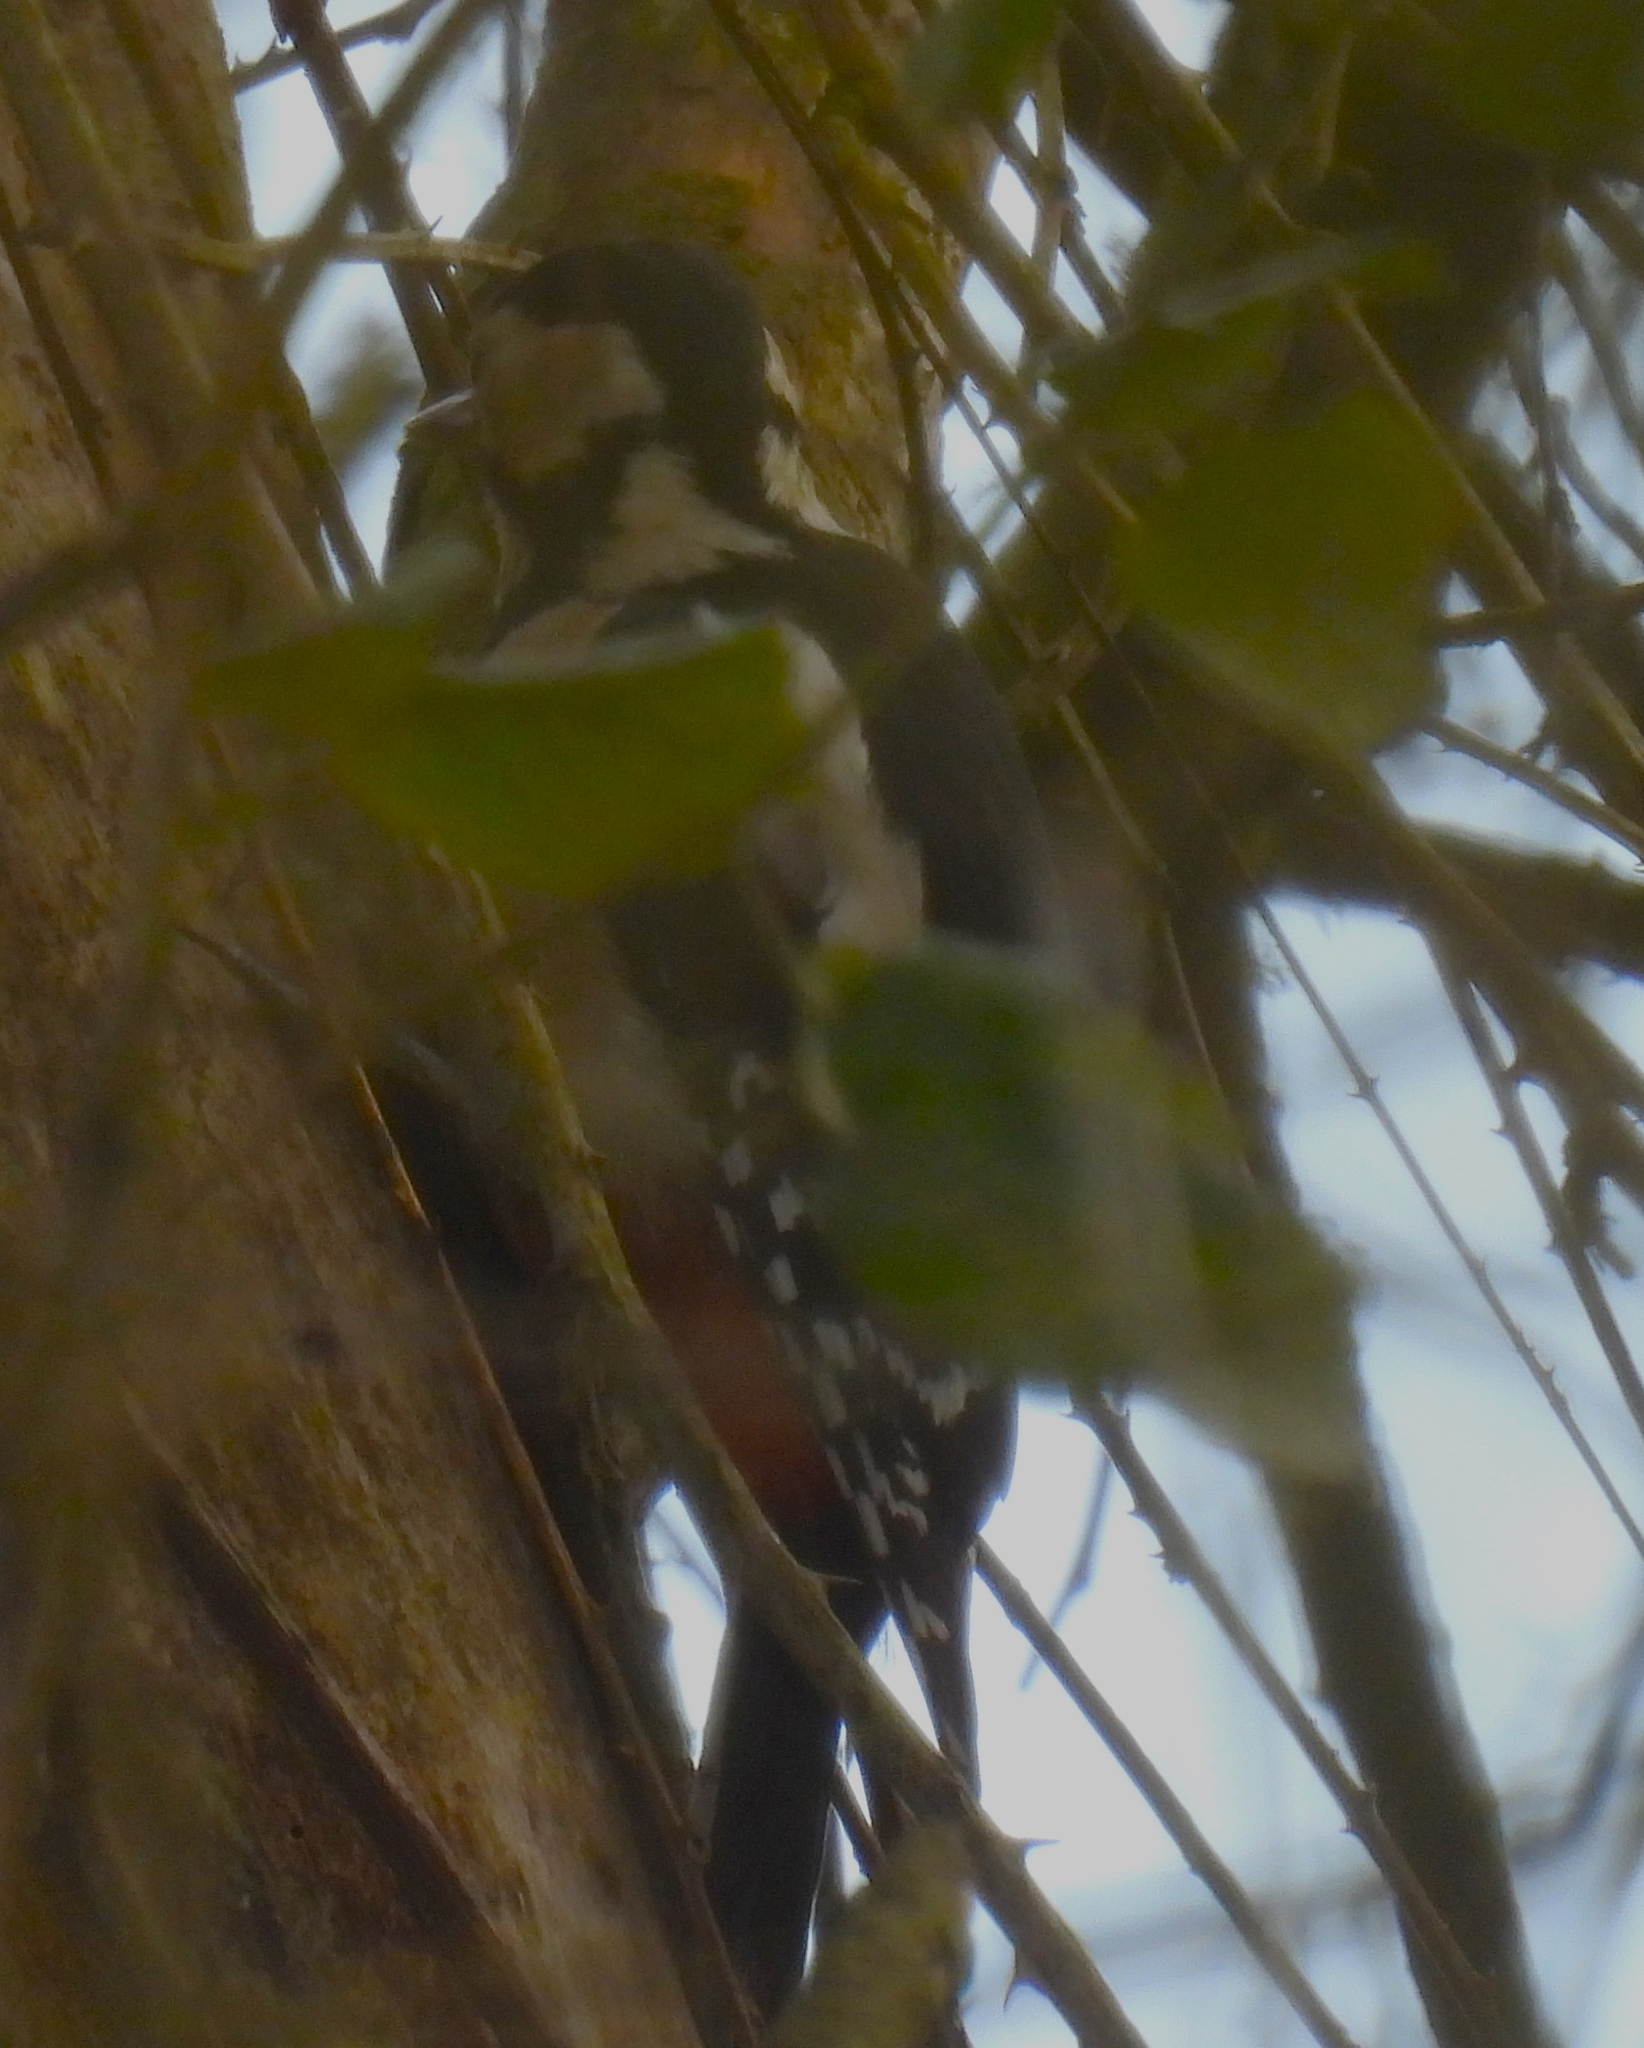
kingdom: Animalia
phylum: Chordata
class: Aves
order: Piciformes
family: Picidae
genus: Dendrocopos
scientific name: Dendrocopos major
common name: Great spotted woodpecker
